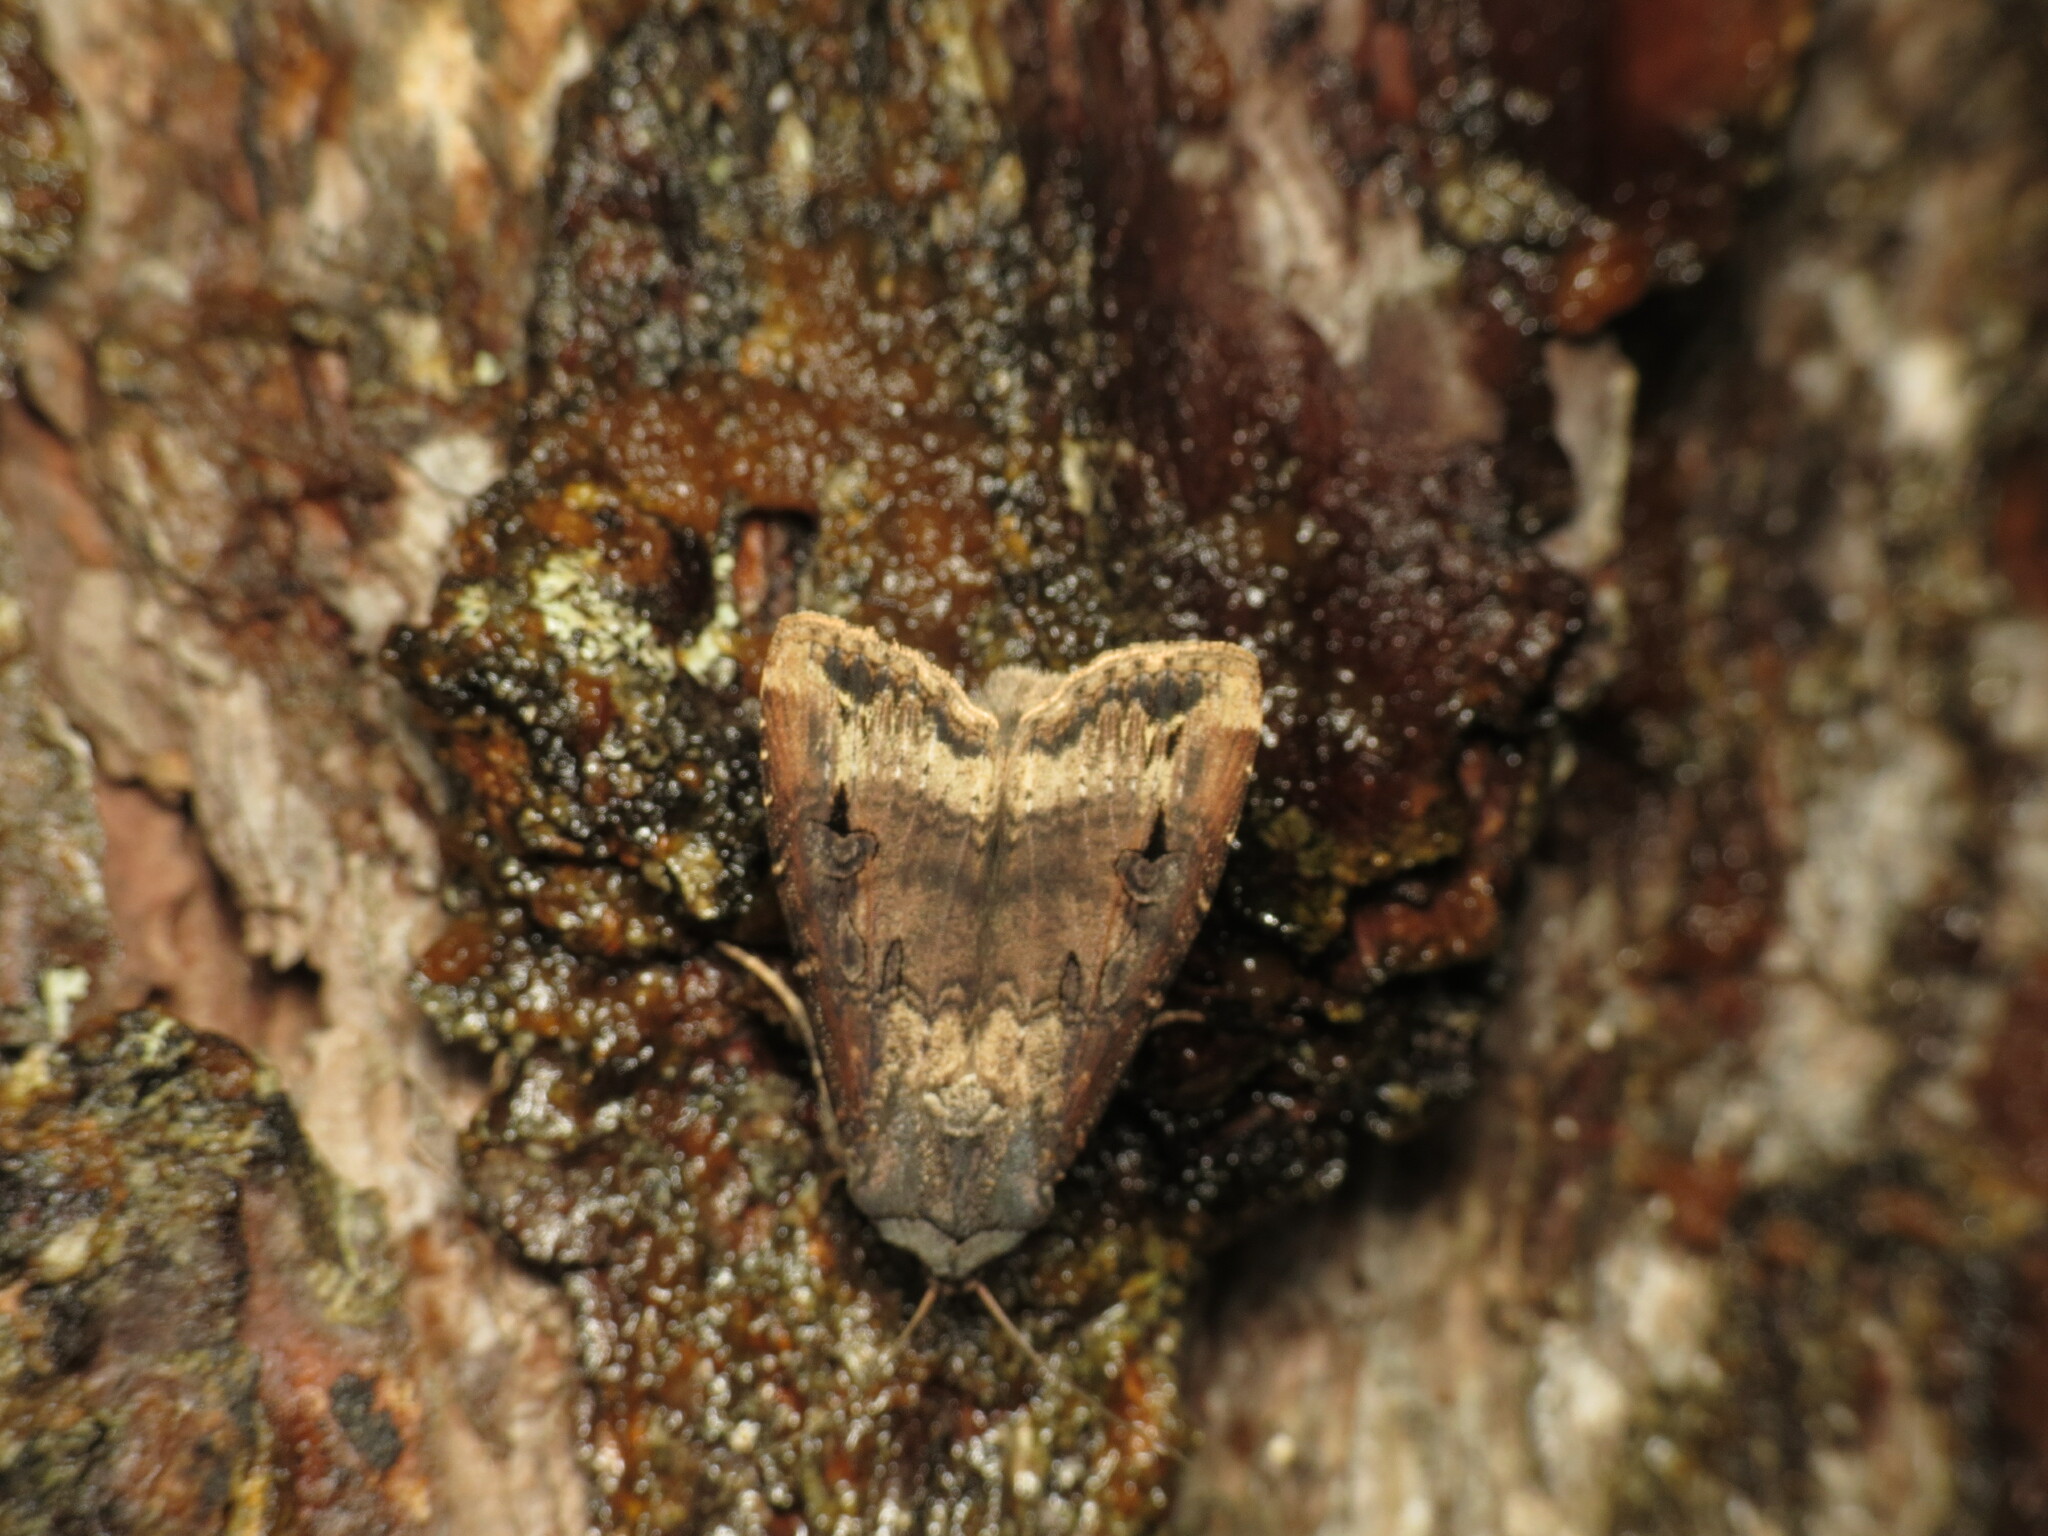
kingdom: Animalia
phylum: Arthropoda
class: Insecta
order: Lepidoptera
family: Noctuidae
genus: Agrotis
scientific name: Agrotis ipsilon
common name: Dark sword-grass
